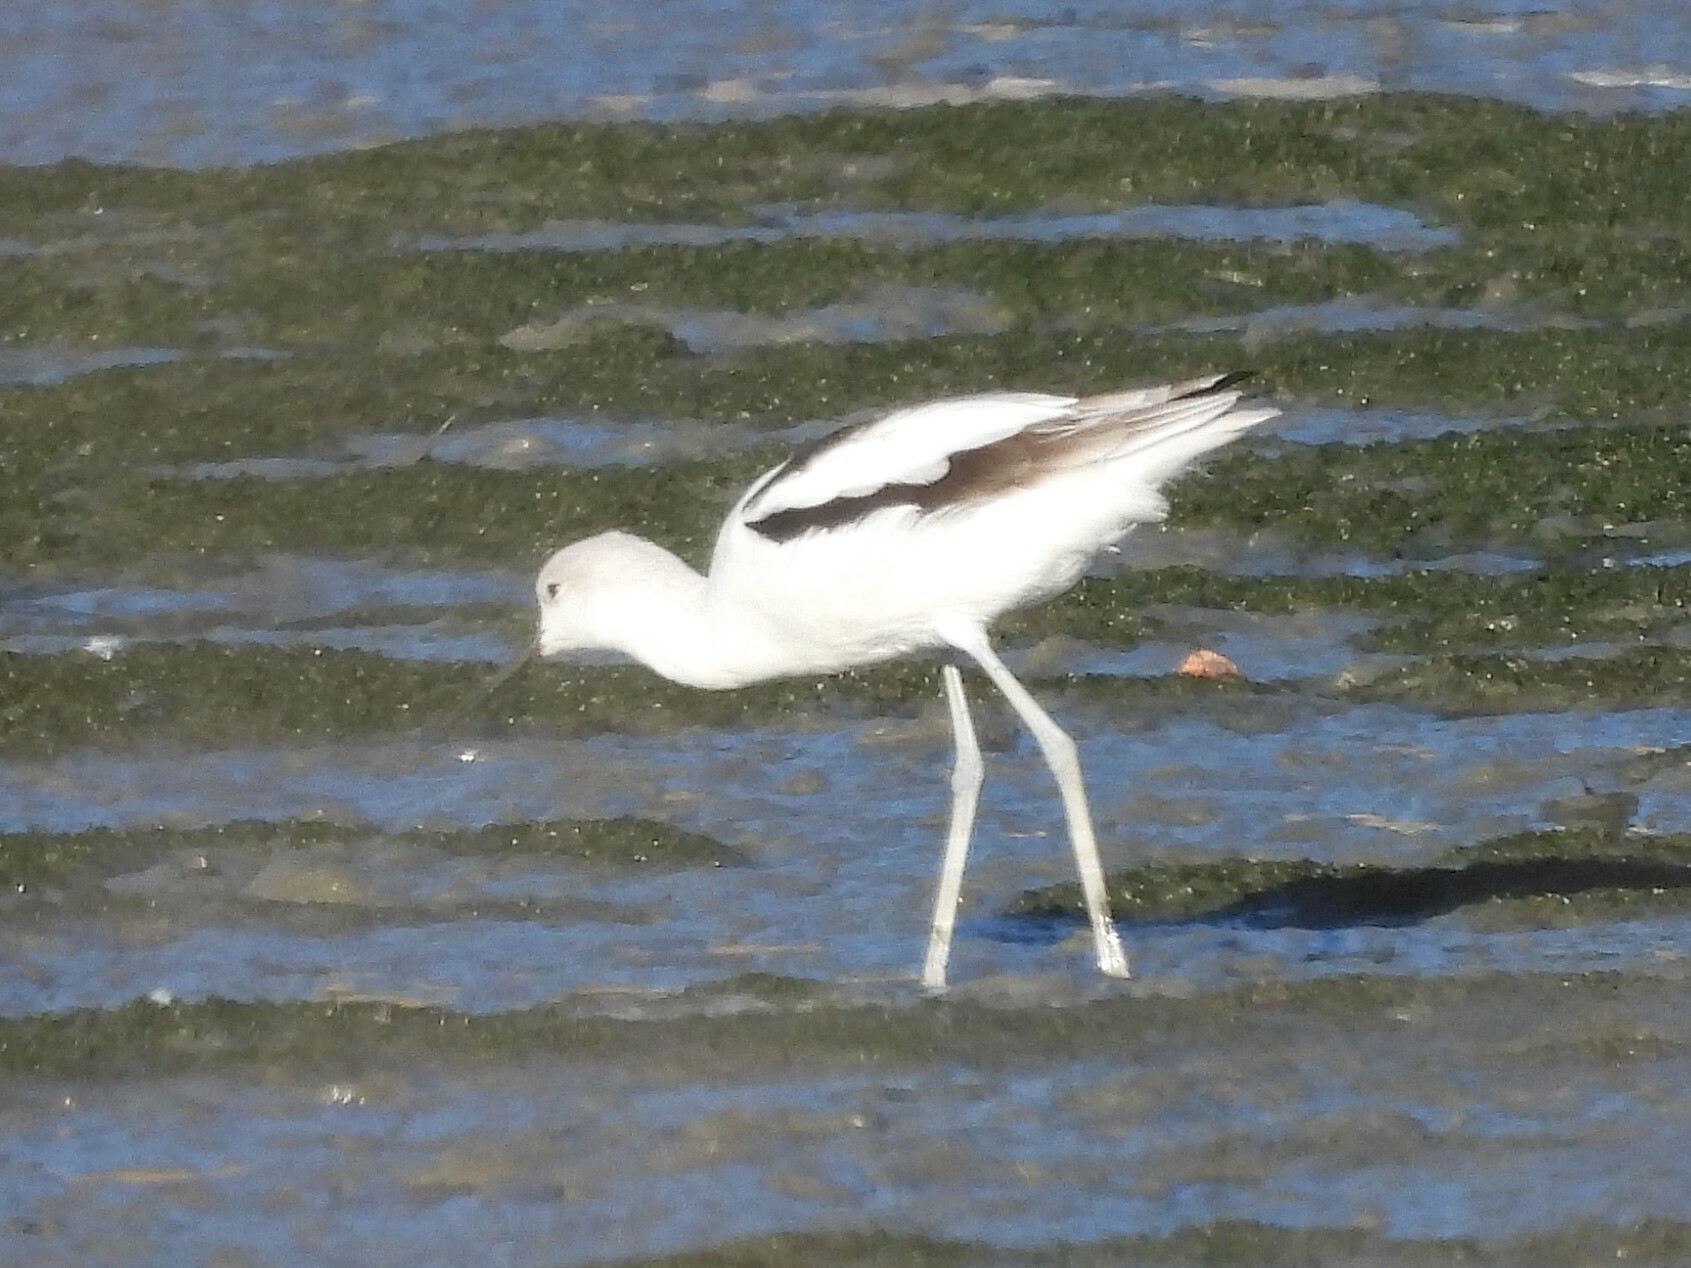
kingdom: Animalia
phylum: Chordata
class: Aves
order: Charadriiformes
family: Recurvirostridae
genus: Recurvirostra
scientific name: Recurvirostra americana
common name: American avocet
